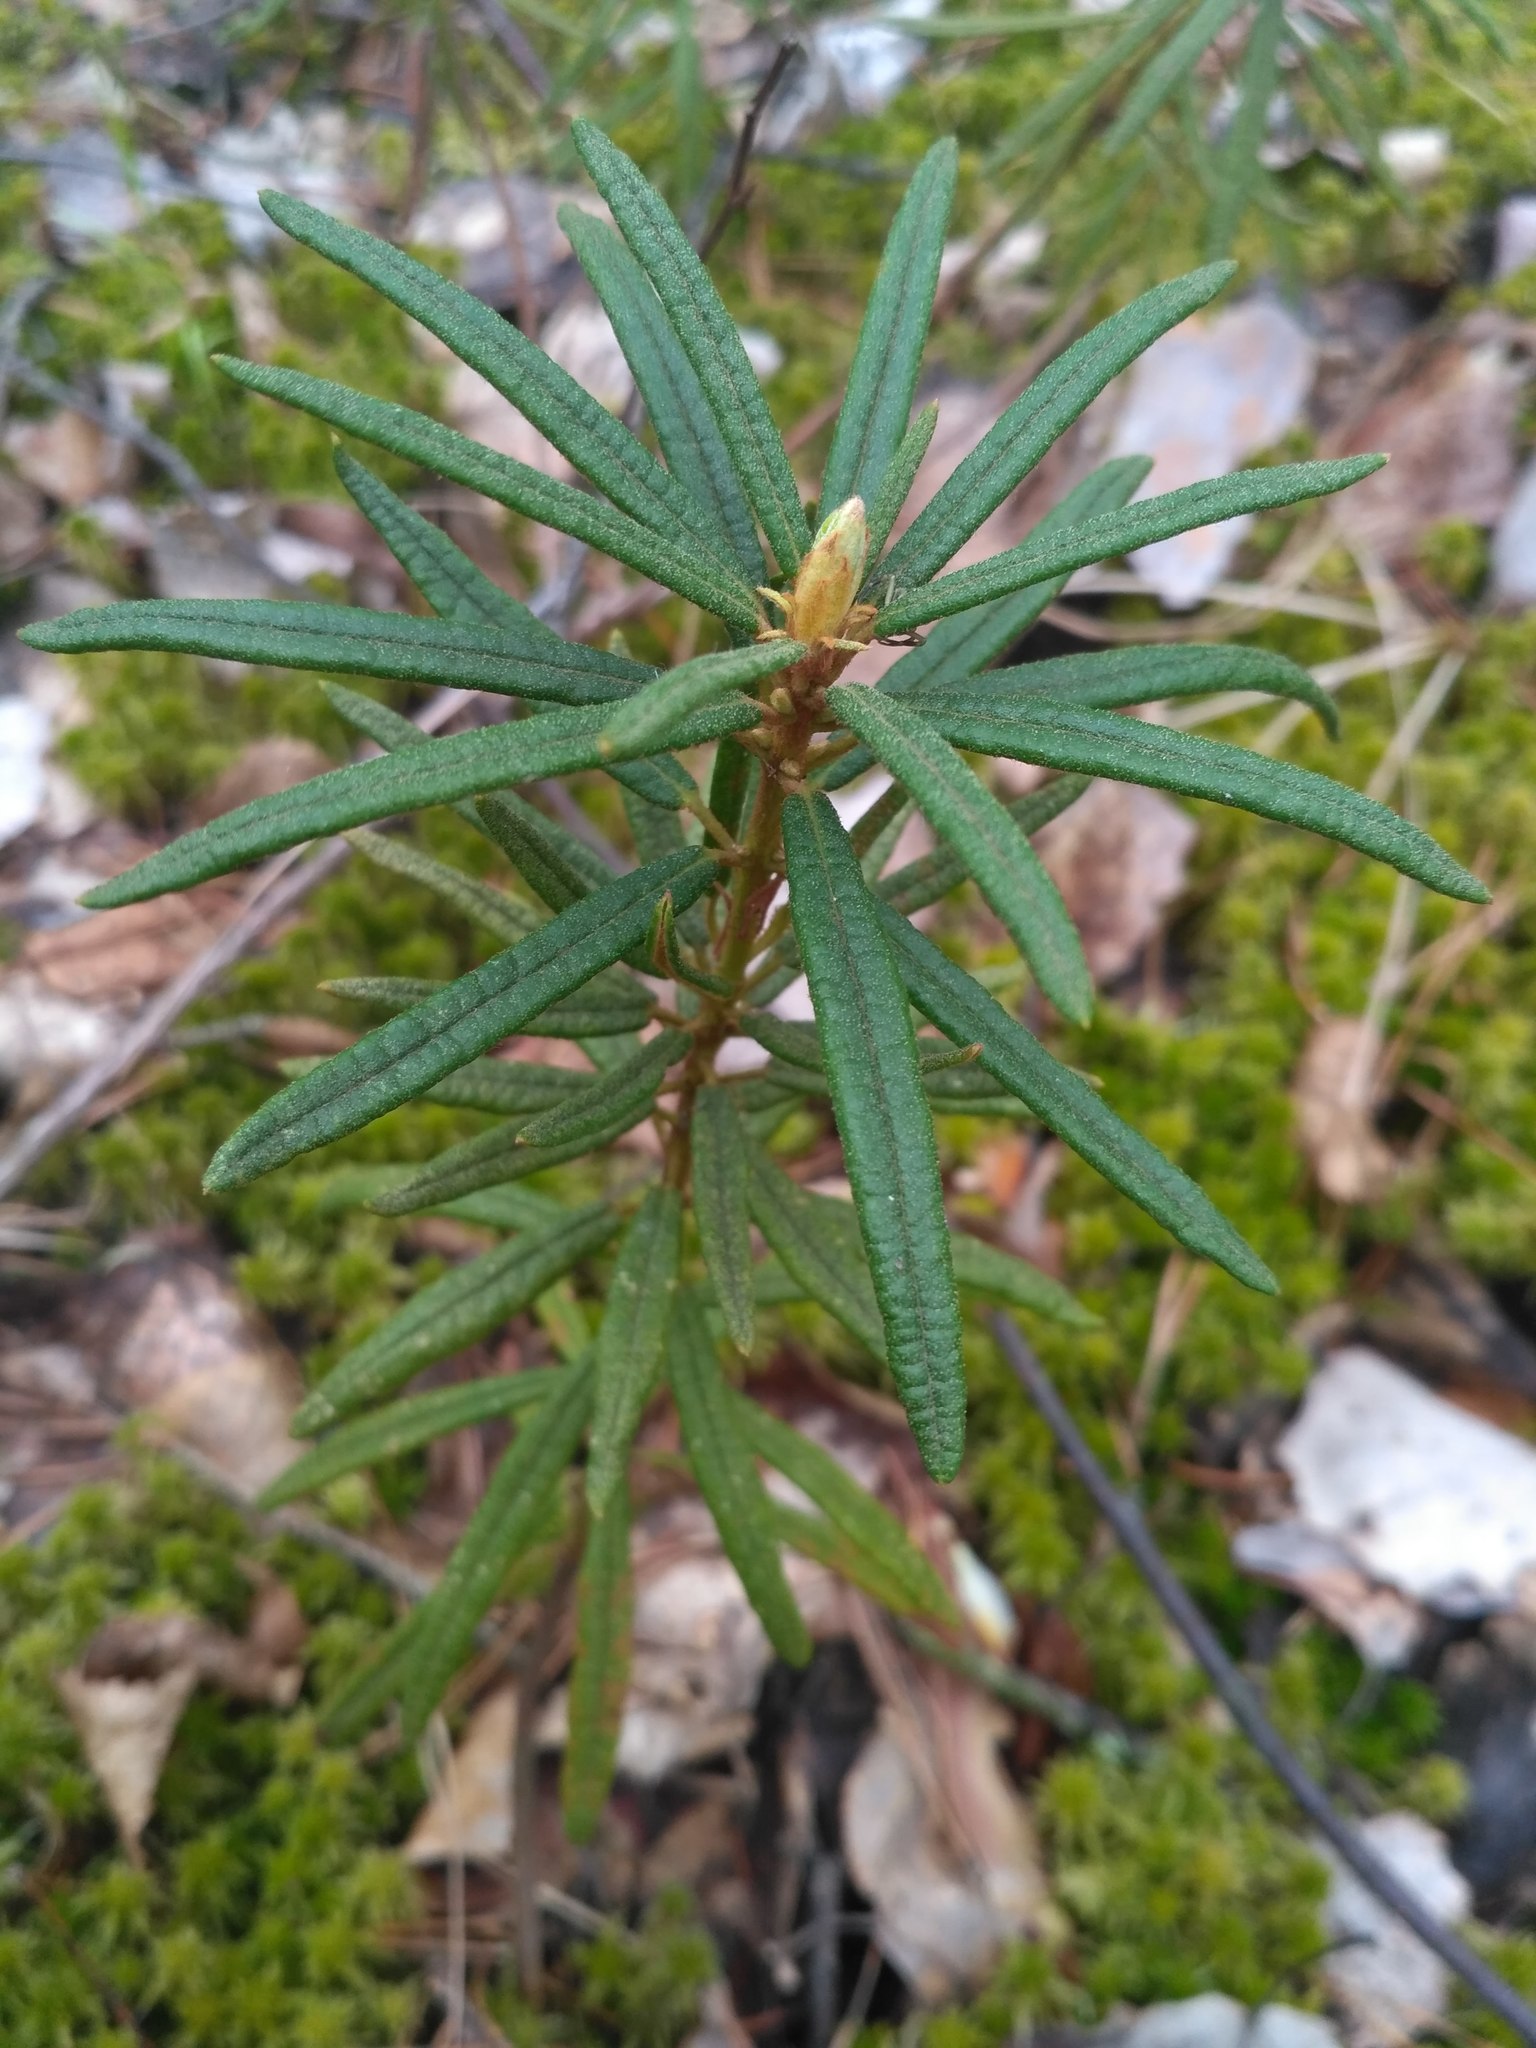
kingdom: Plantae
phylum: Tracheophyta
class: Magnoliopsida
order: Ericales
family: Ericaceae
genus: Rhododendron
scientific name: Rhododendron tomentosum
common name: Marsh labrador tea
